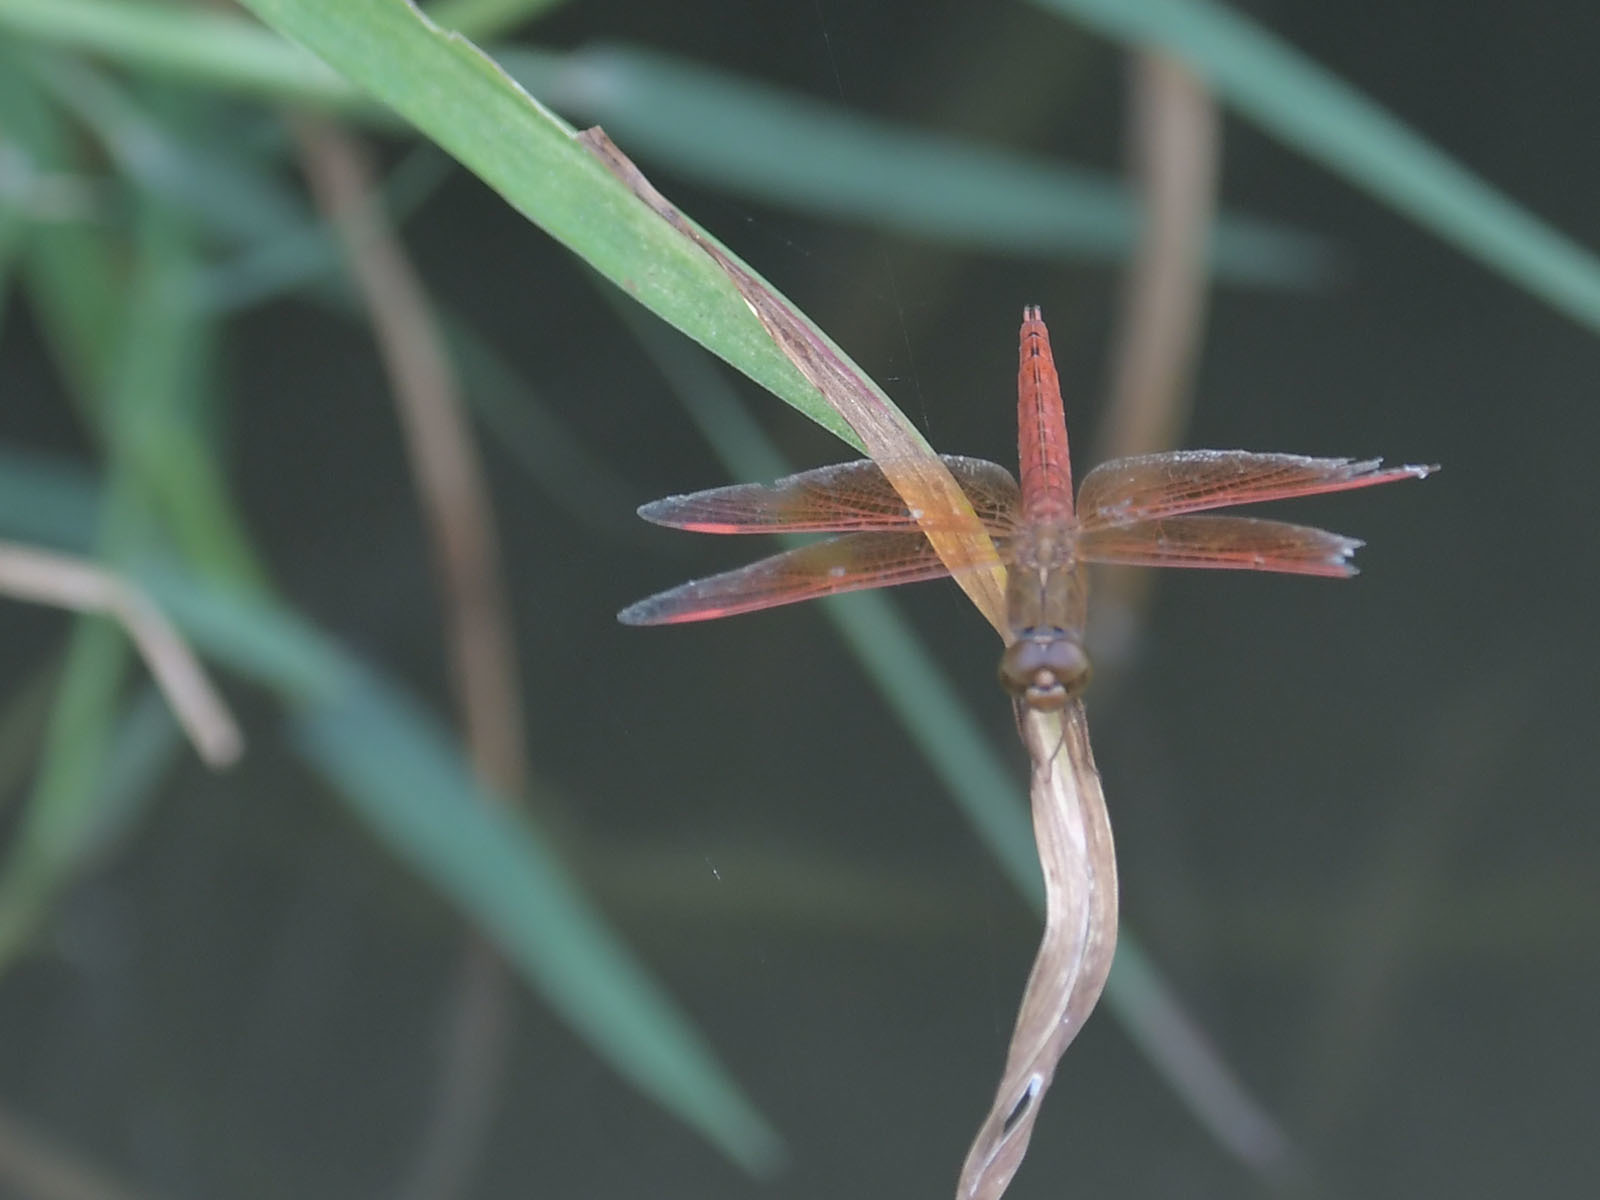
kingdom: Animalia
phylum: Arthropoda
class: Insecta
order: Odonata
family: Libellulidae
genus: Brachythemis
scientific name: Brachythemis contaminata
